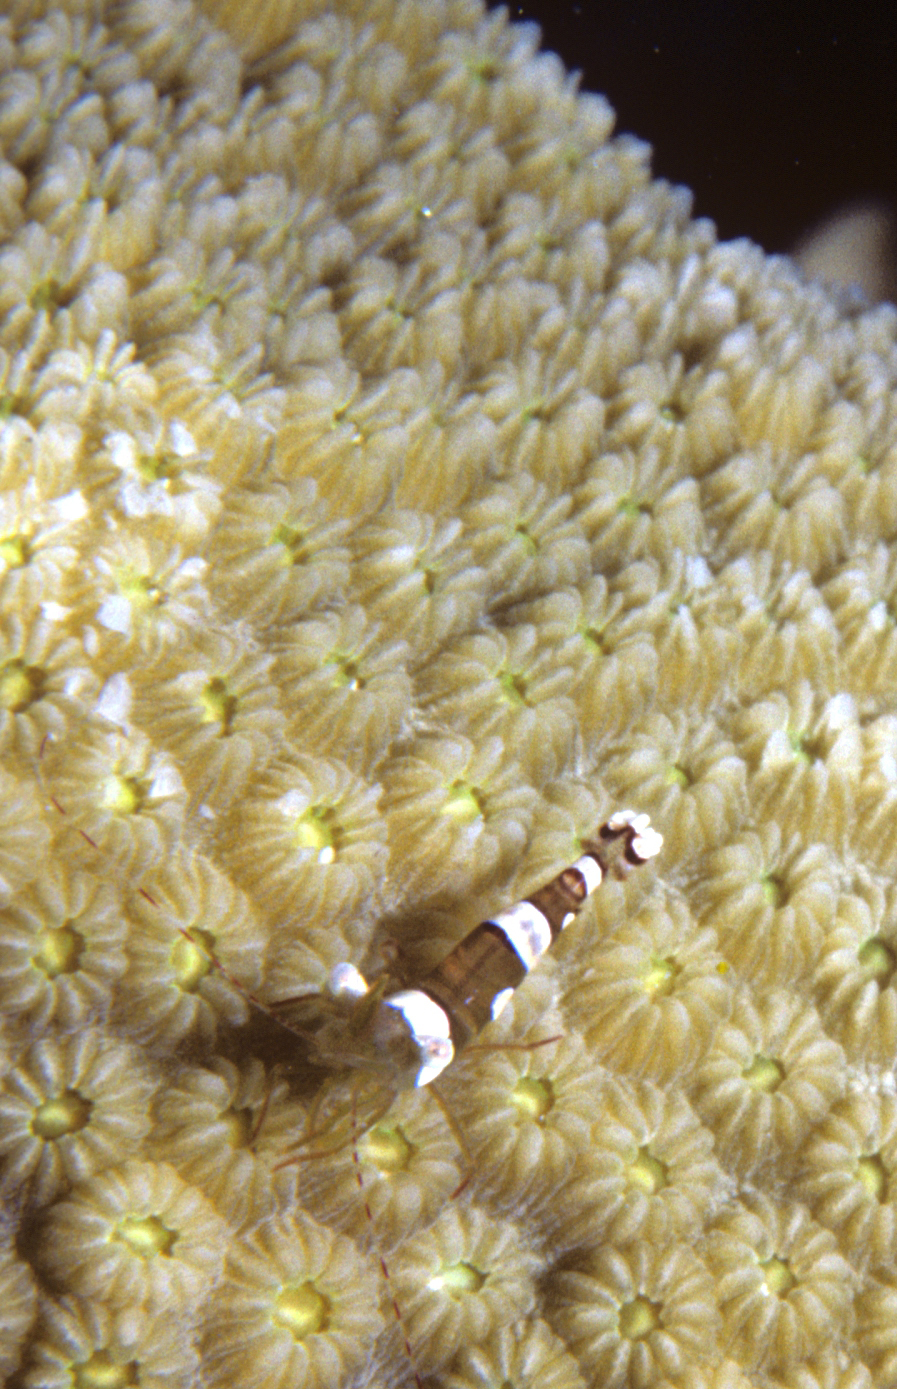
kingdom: Animalia
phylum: Arthropoda
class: Malacostraca
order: Decapoda
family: Thoridae
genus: Thor
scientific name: Thor dicaprio
